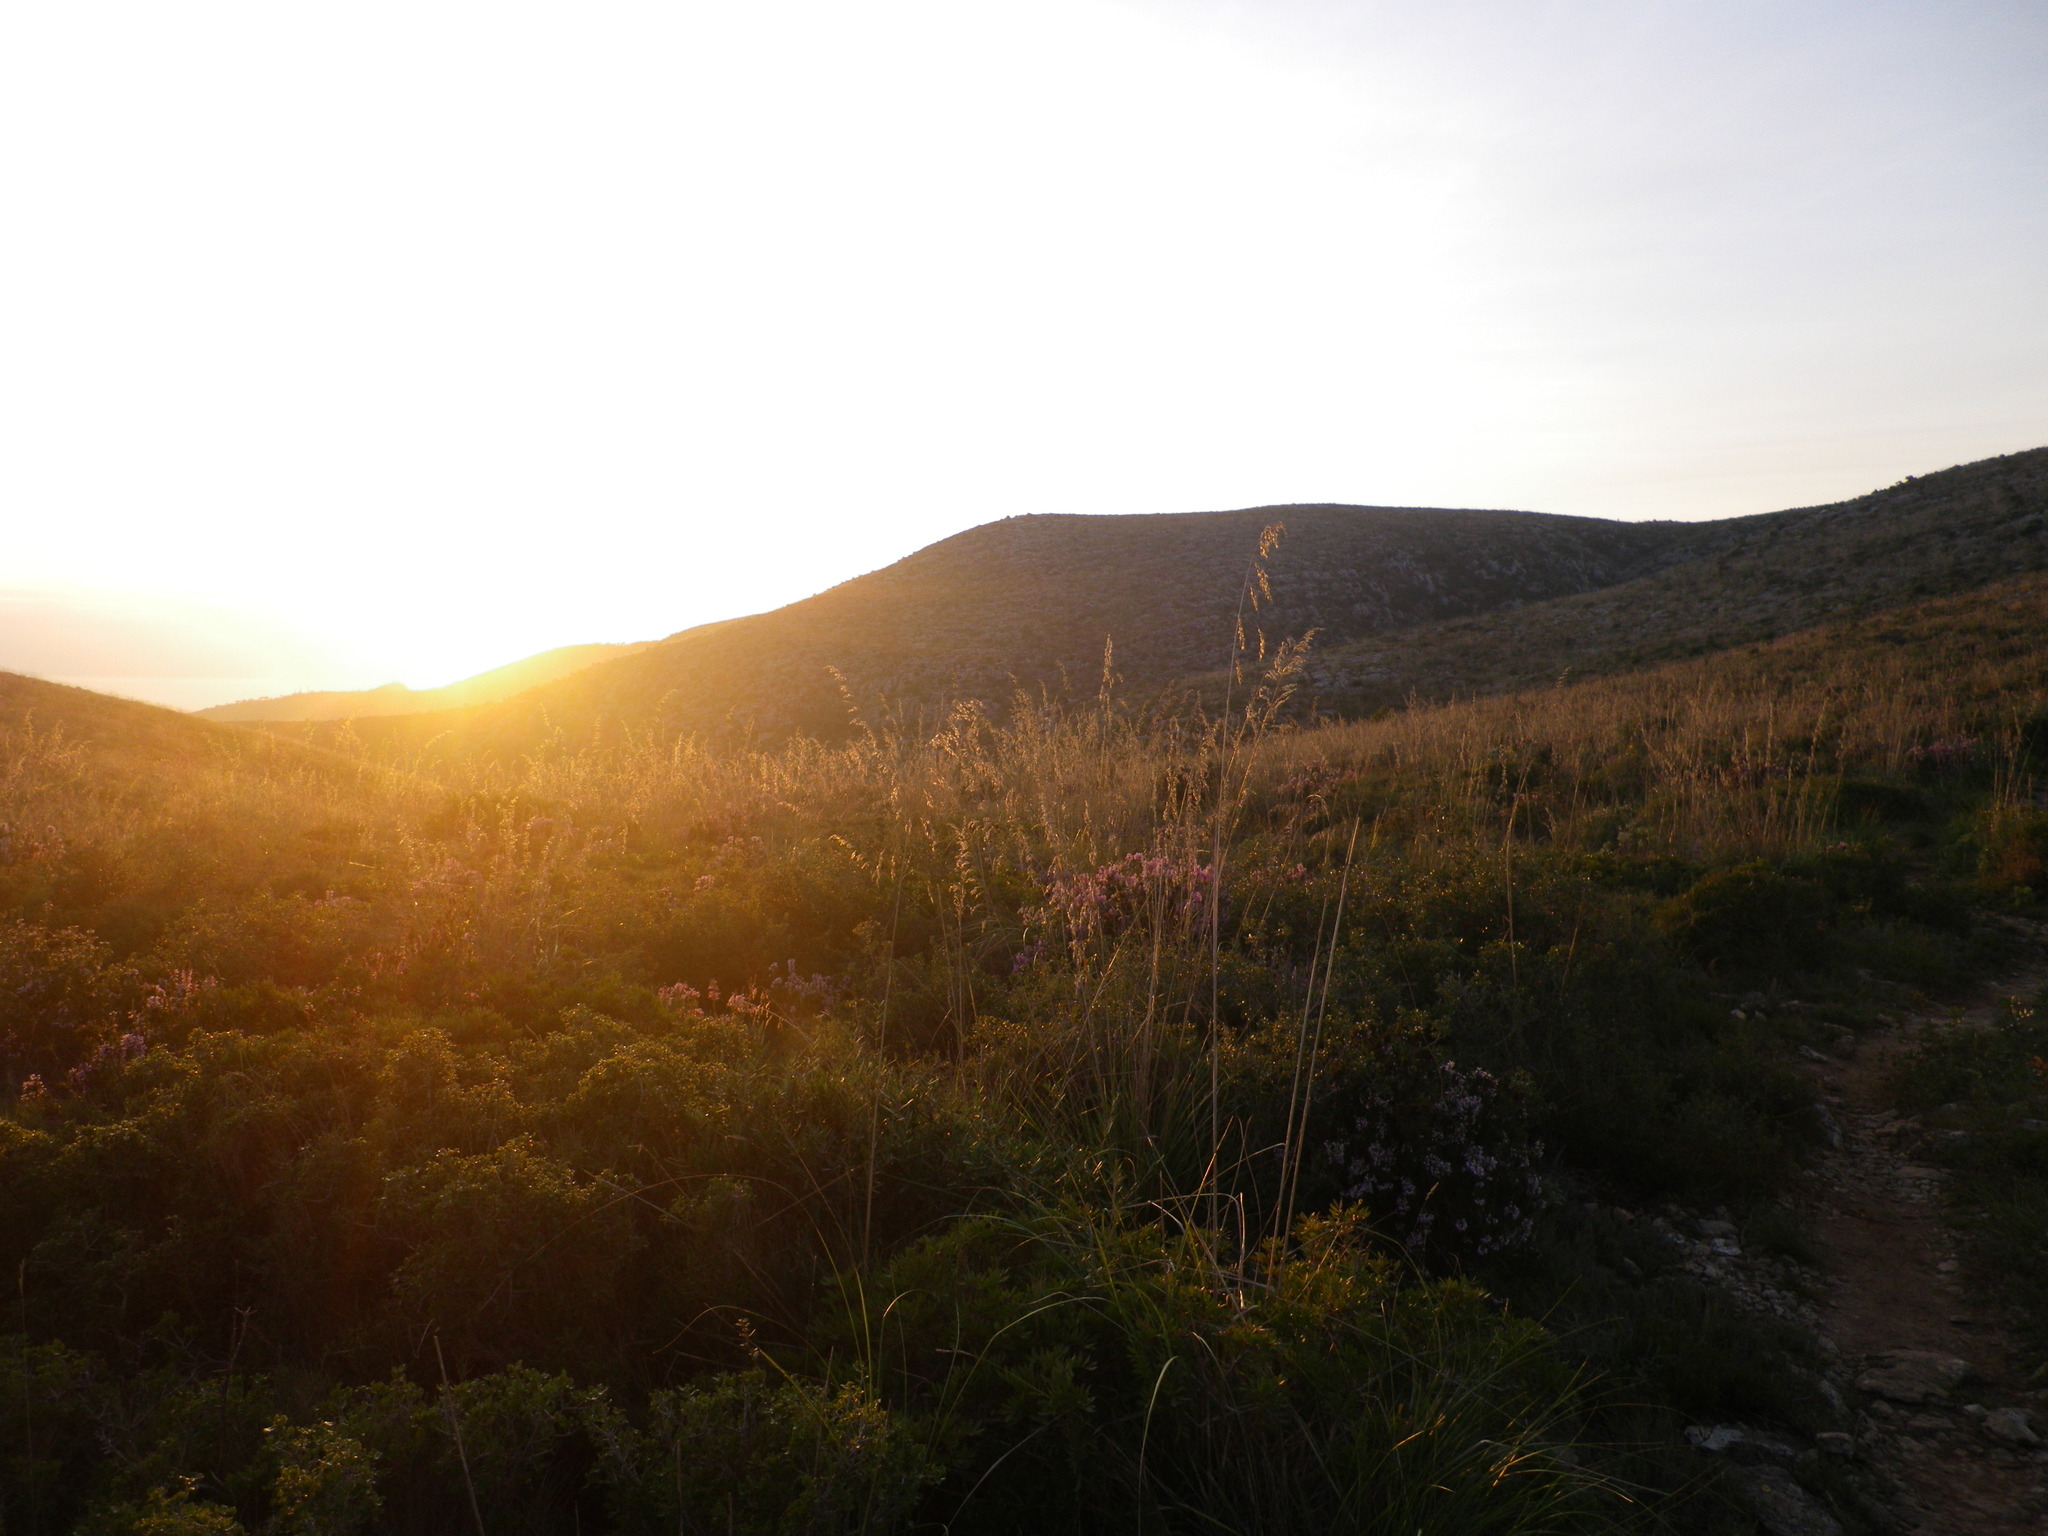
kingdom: Plantae
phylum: Tracheophyta
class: Liliopsida
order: Poales
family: Poaceae
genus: Ampelodesmos
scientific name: Ampelodesmos mauritanicus
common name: Mauritanian grass
